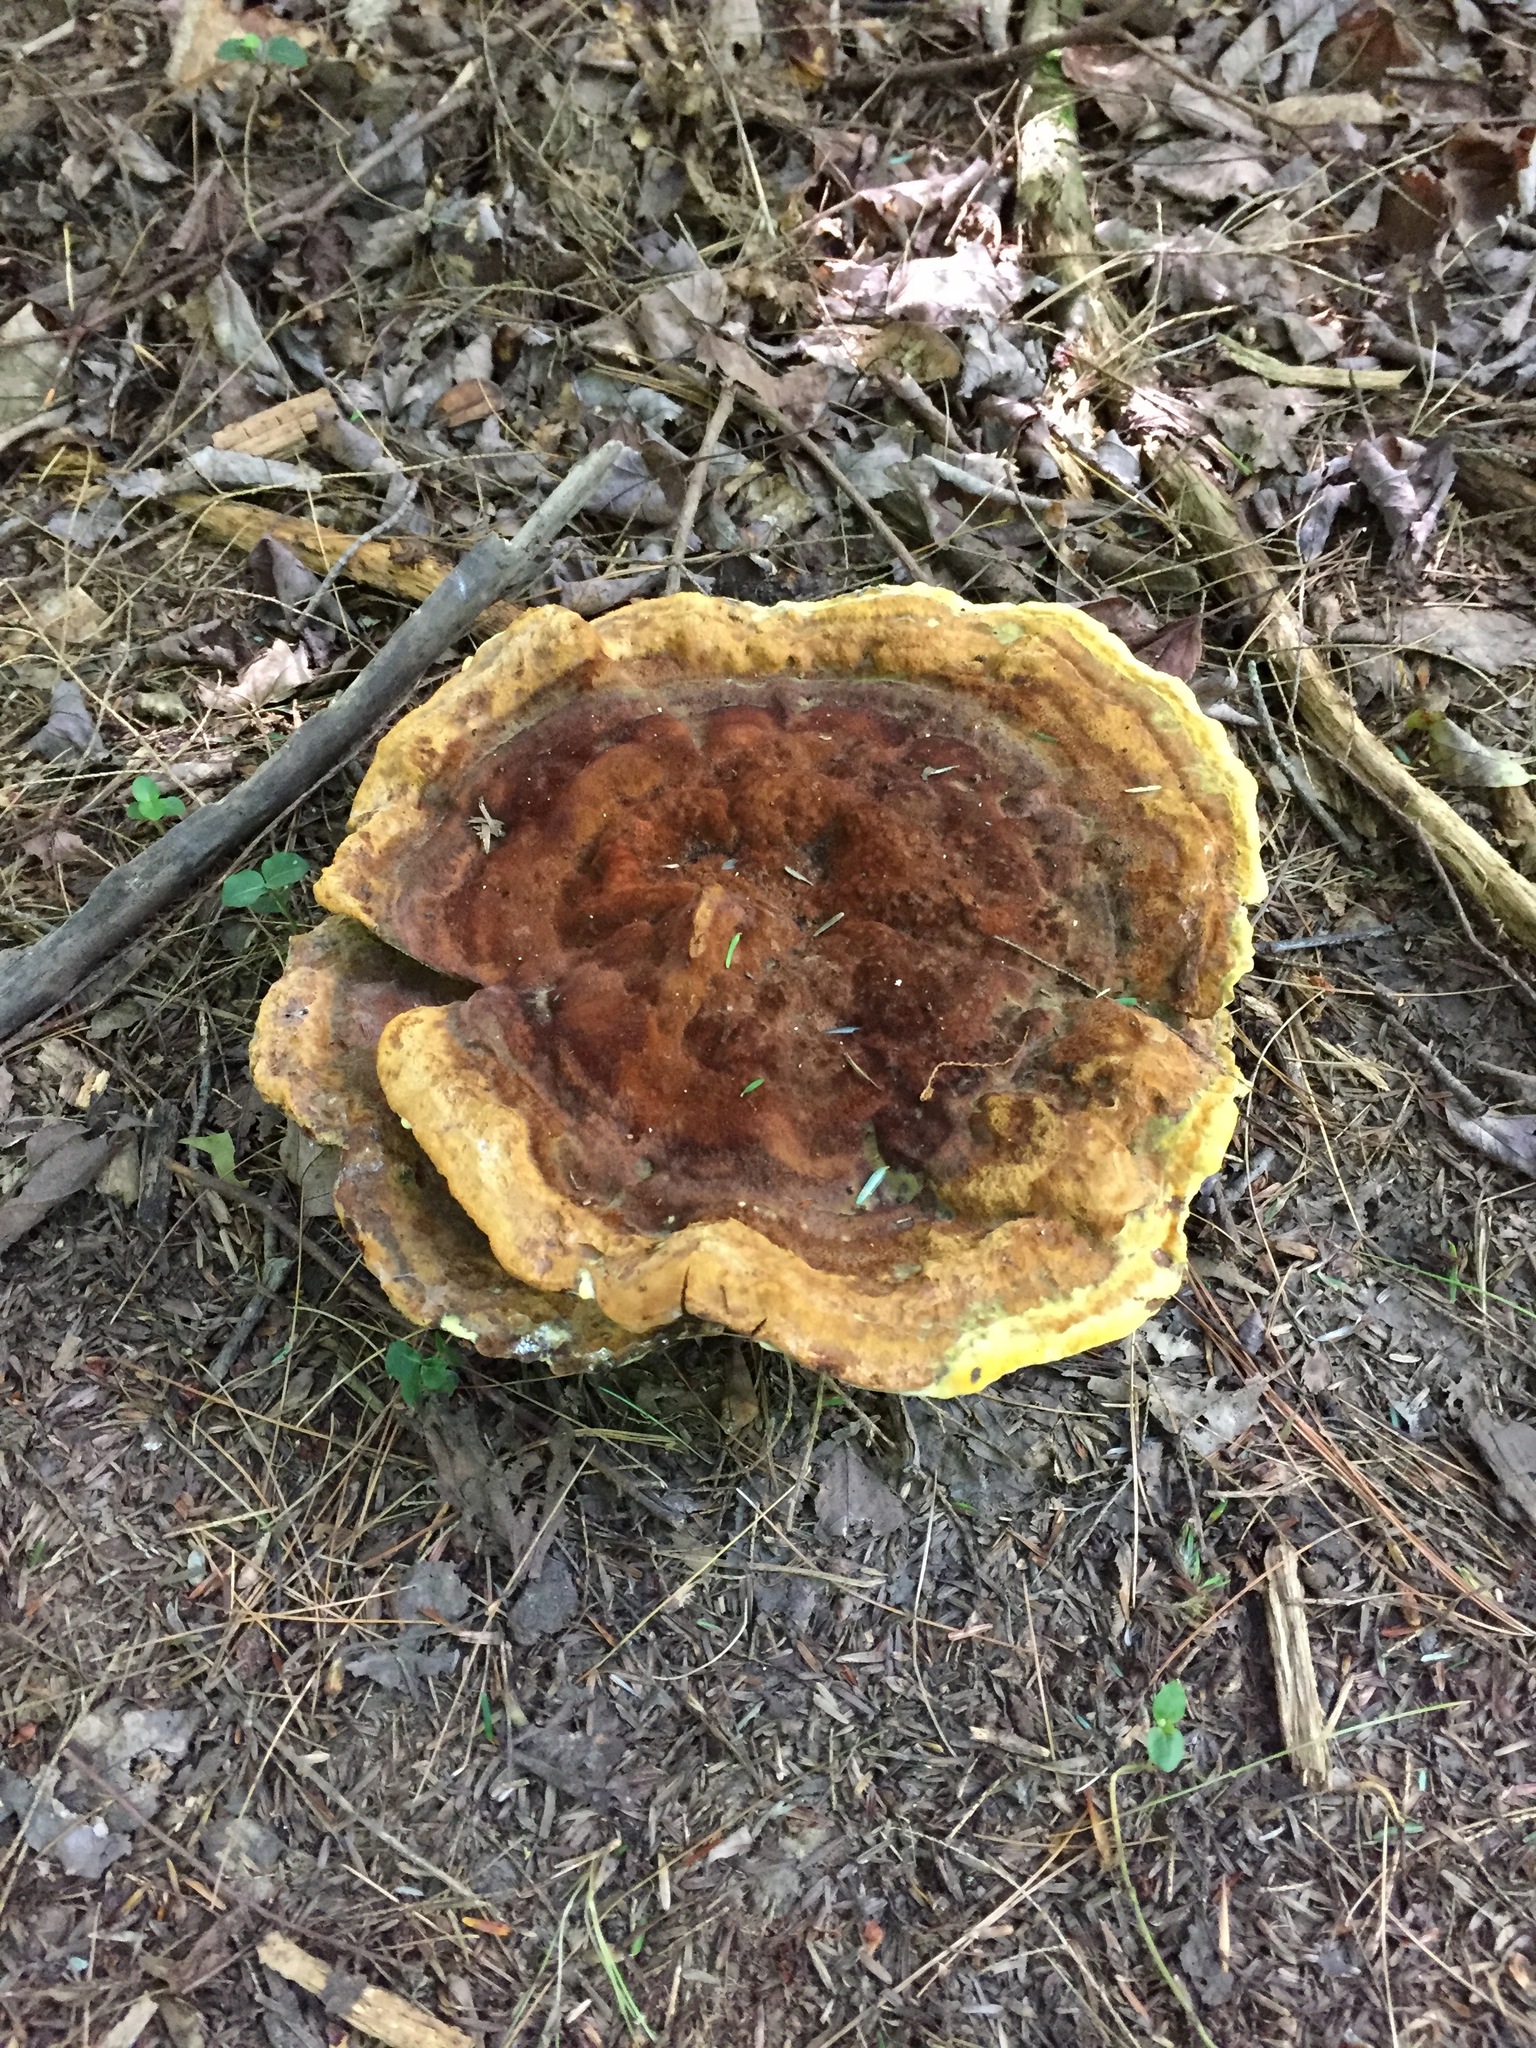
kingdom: Fungi
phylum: Basidiomycota
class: Agaricomycetes
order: Polyporales
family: Laetiporaceae
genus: Phaeolus
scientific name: Phaeolus schweinitzii
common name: Dyer's mazegill
